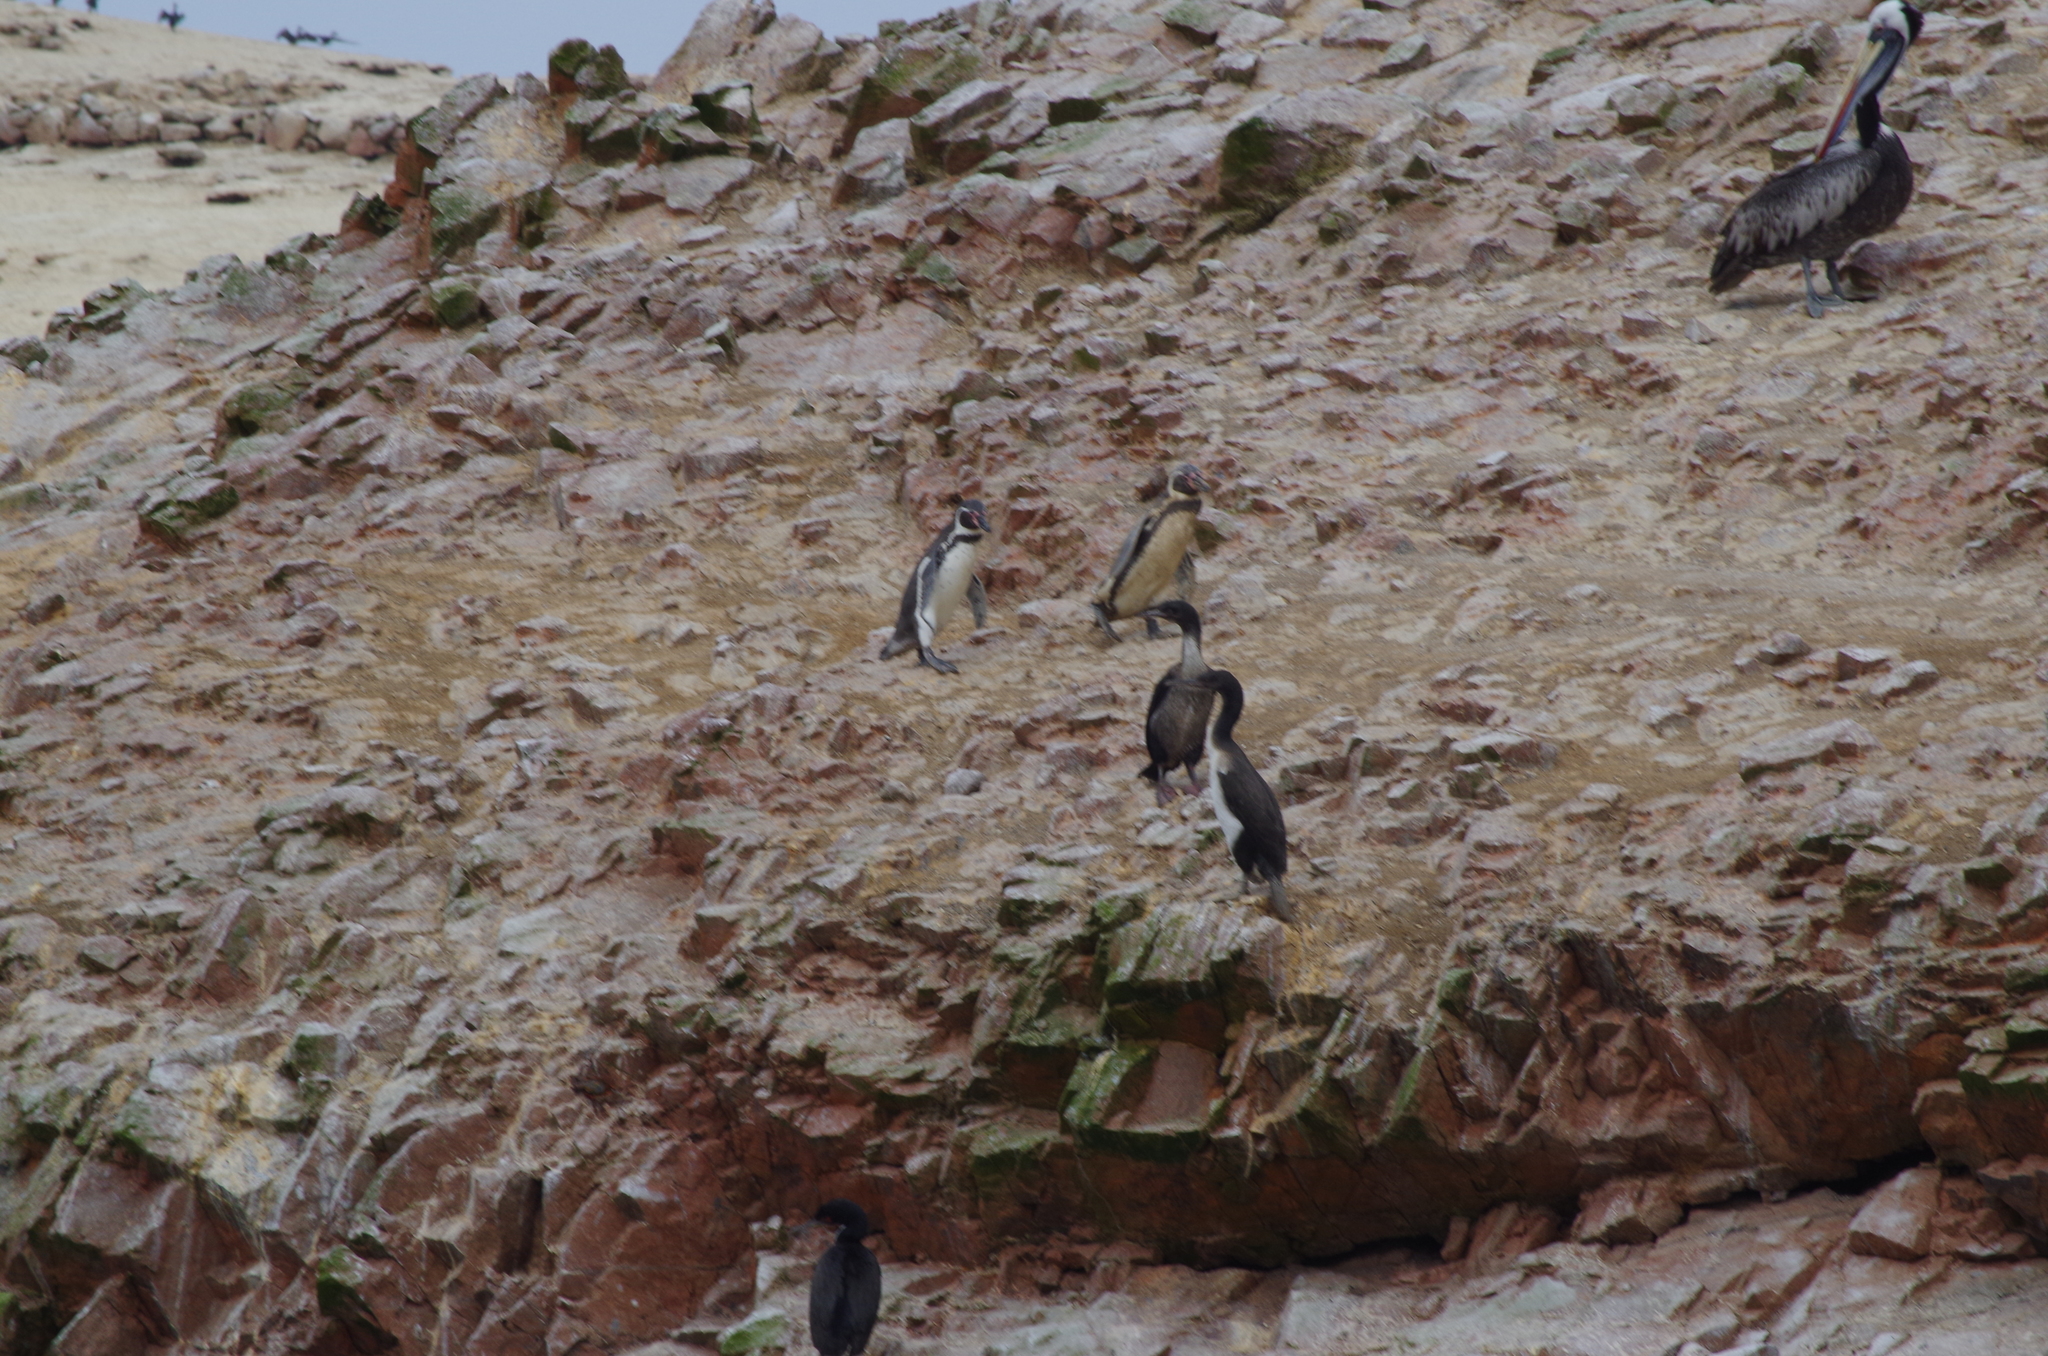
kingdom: Animalia
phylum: Chordata
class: Aves
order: Suliformes
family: Phalacrocoracidae
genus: Leucocarbo
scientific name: Leucocarbo bougainvillii
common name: Guanay cormorant
